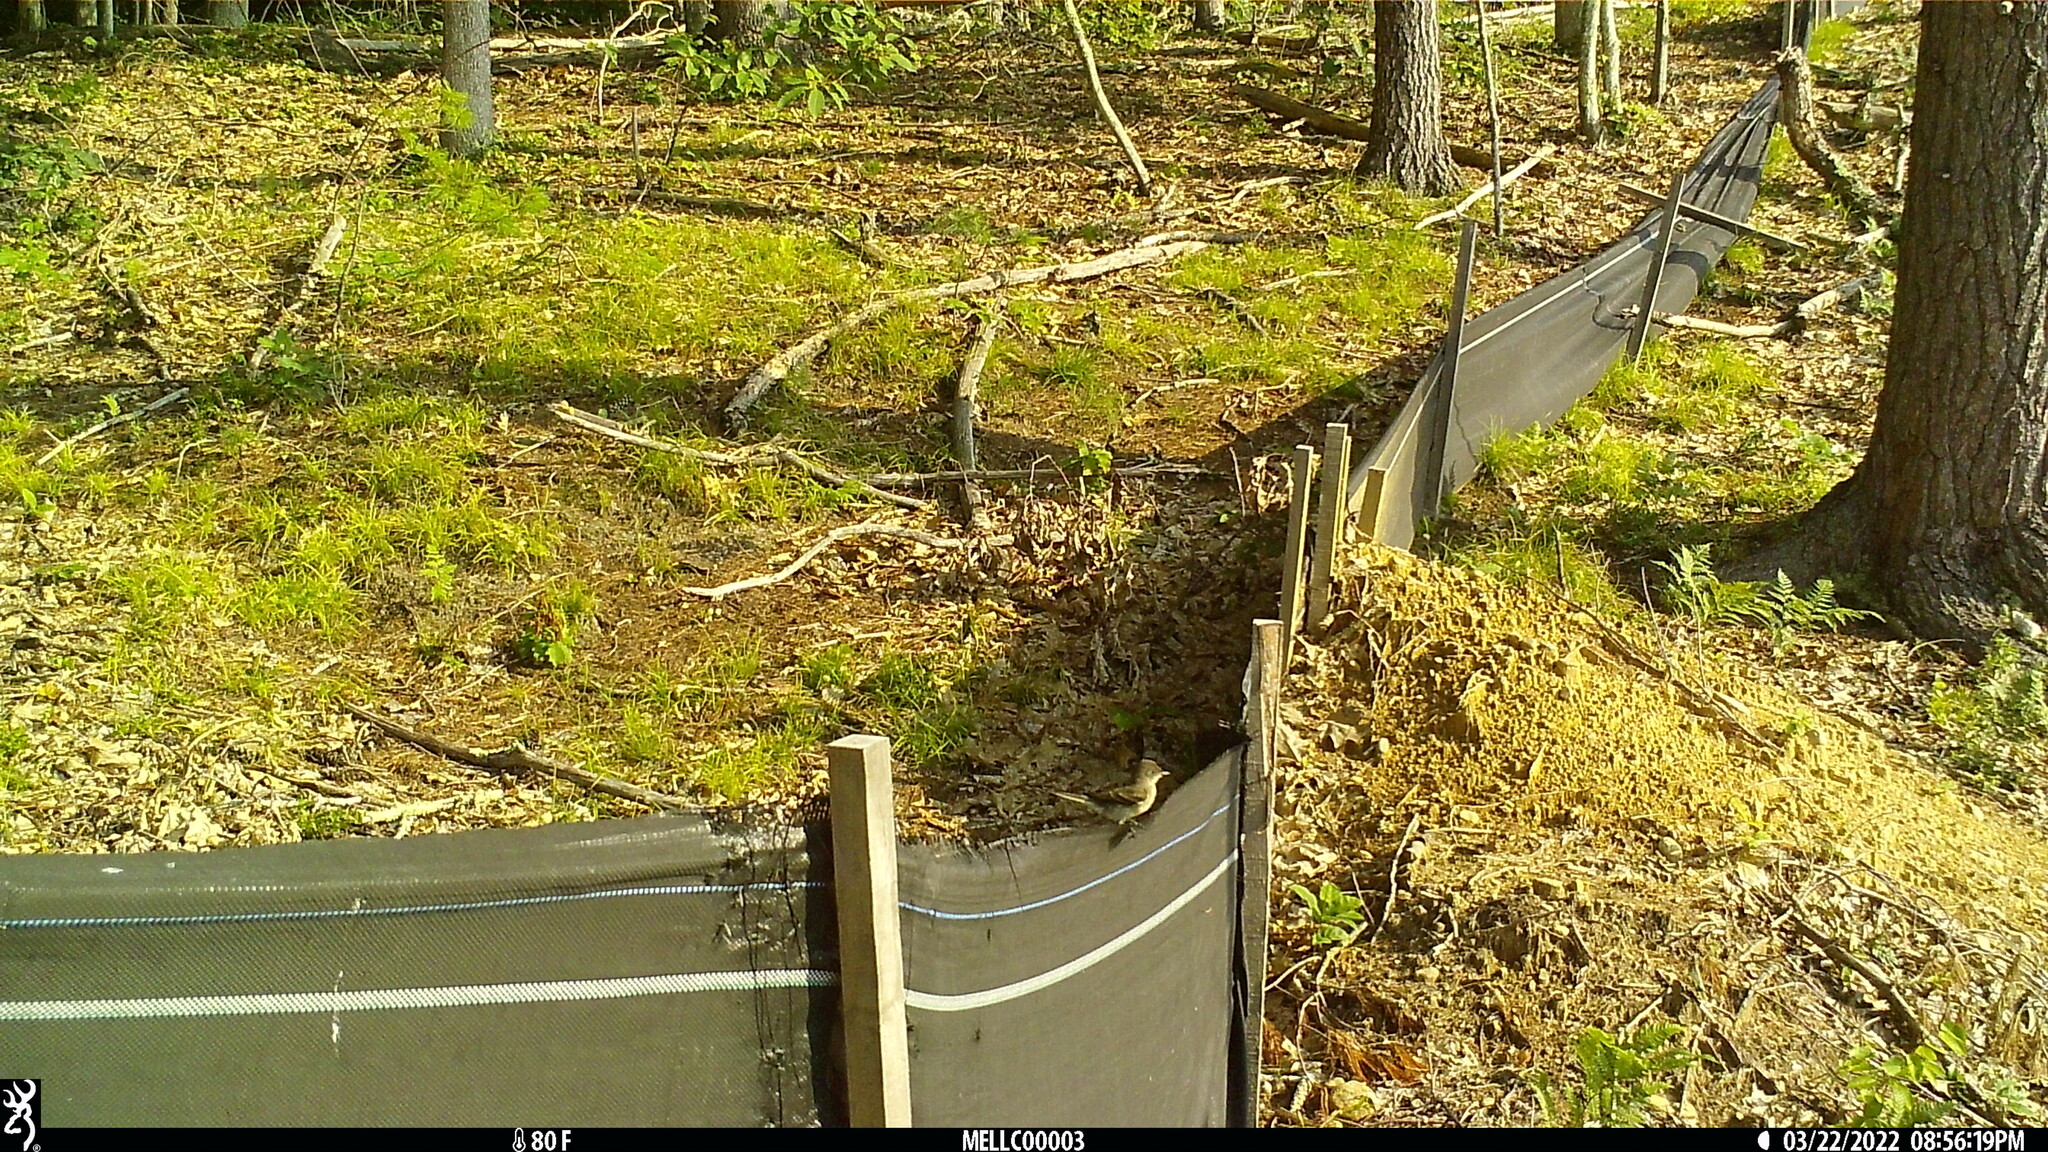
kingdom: Animalia
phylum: Chordata
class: Aves
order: Passeriformes
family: Tyrannidae
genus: Sayornis
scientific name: Sayornis phoebe
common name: Eastern phoebe
